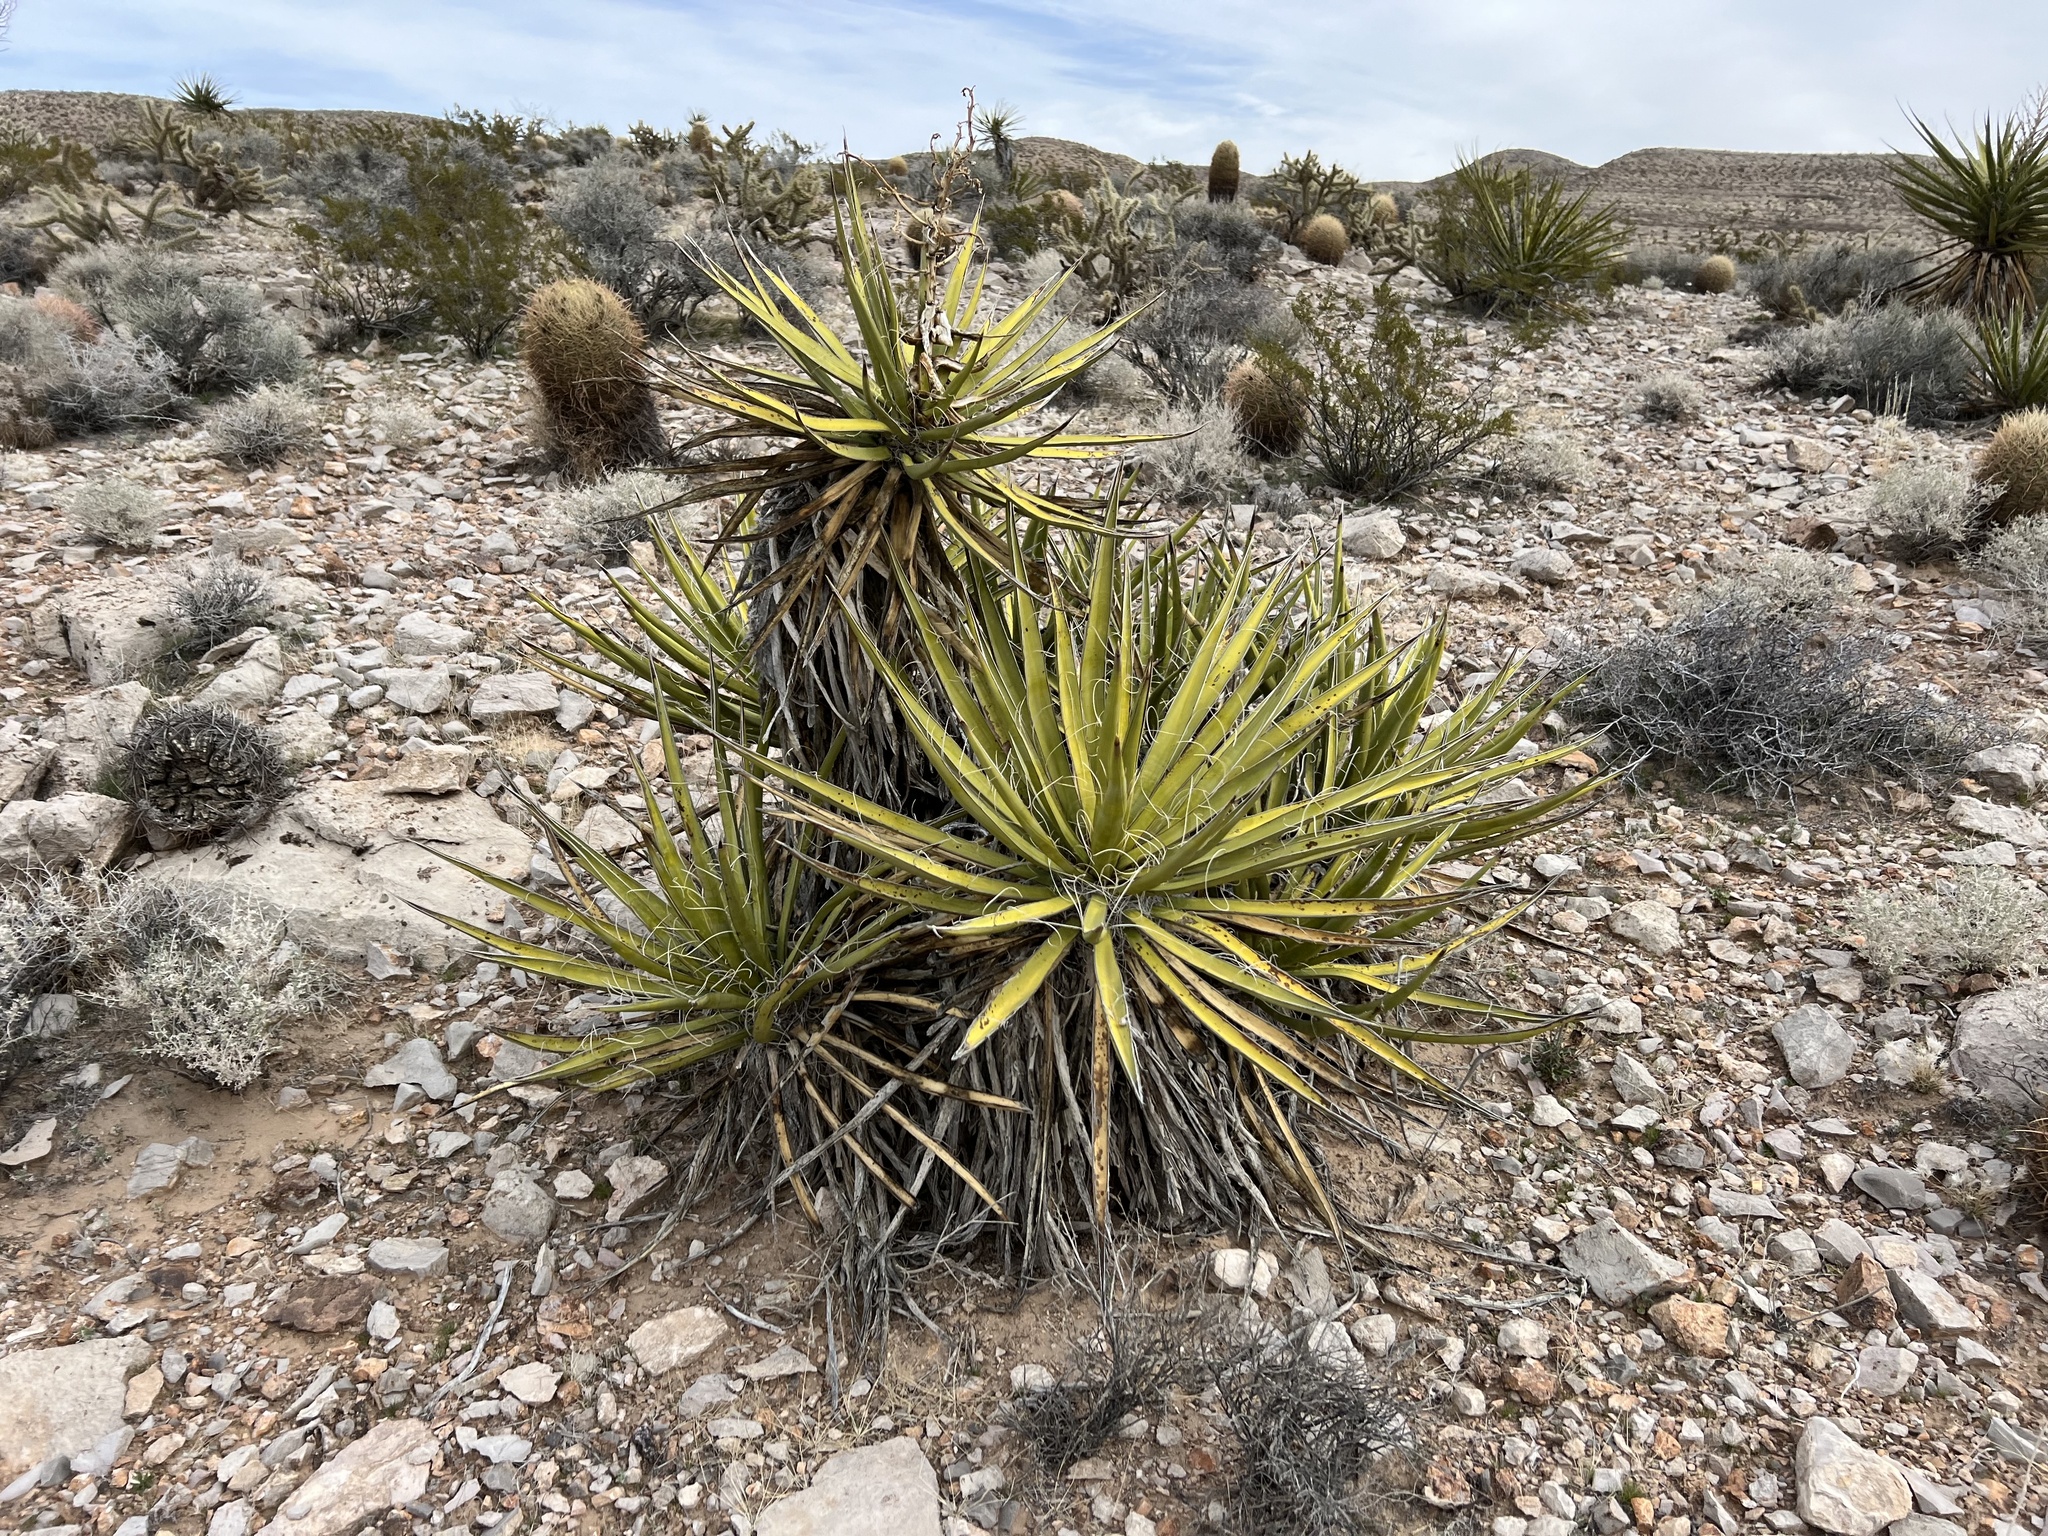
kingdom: Plantae
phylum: Tracheophyta
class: Liliopsida
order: Asparagales
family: Asparagaceae
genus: Yucca
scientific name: Yucca schidigera
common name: Mojave yucca
